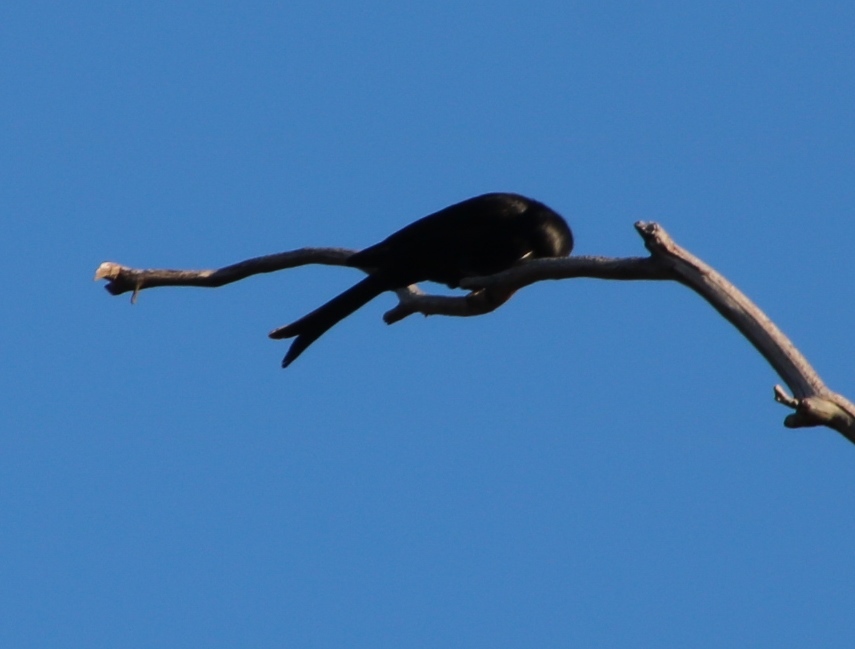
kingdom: Animalia
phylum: Chordata
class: Aves
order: Passeriformes
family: Dicruridae
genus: Dicrurus
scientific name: Dicrurus adsimilis
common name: Fork-tailed drongo
